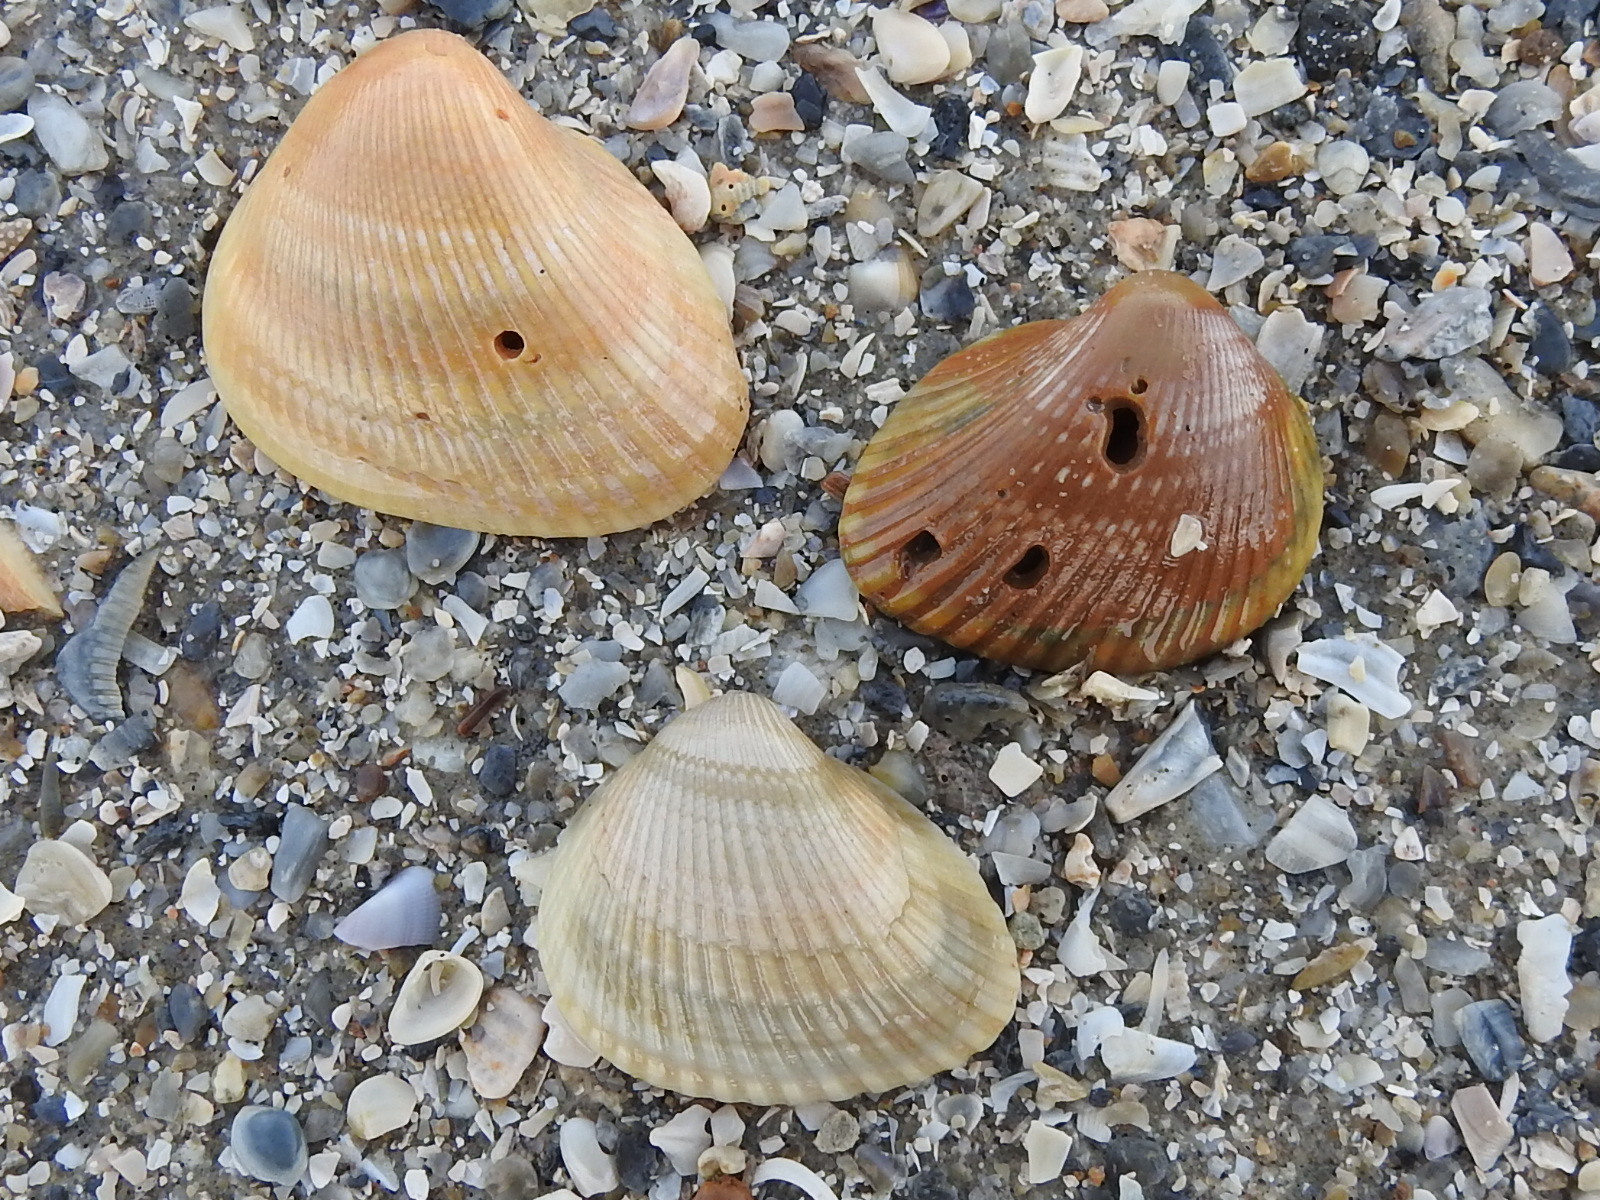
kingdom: Animalia
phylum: Mollusca
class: Bivalvia
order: Arcida
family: Noetiidae
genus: Noetia
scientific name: Noetia ponderosa
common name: Ponderous ark
